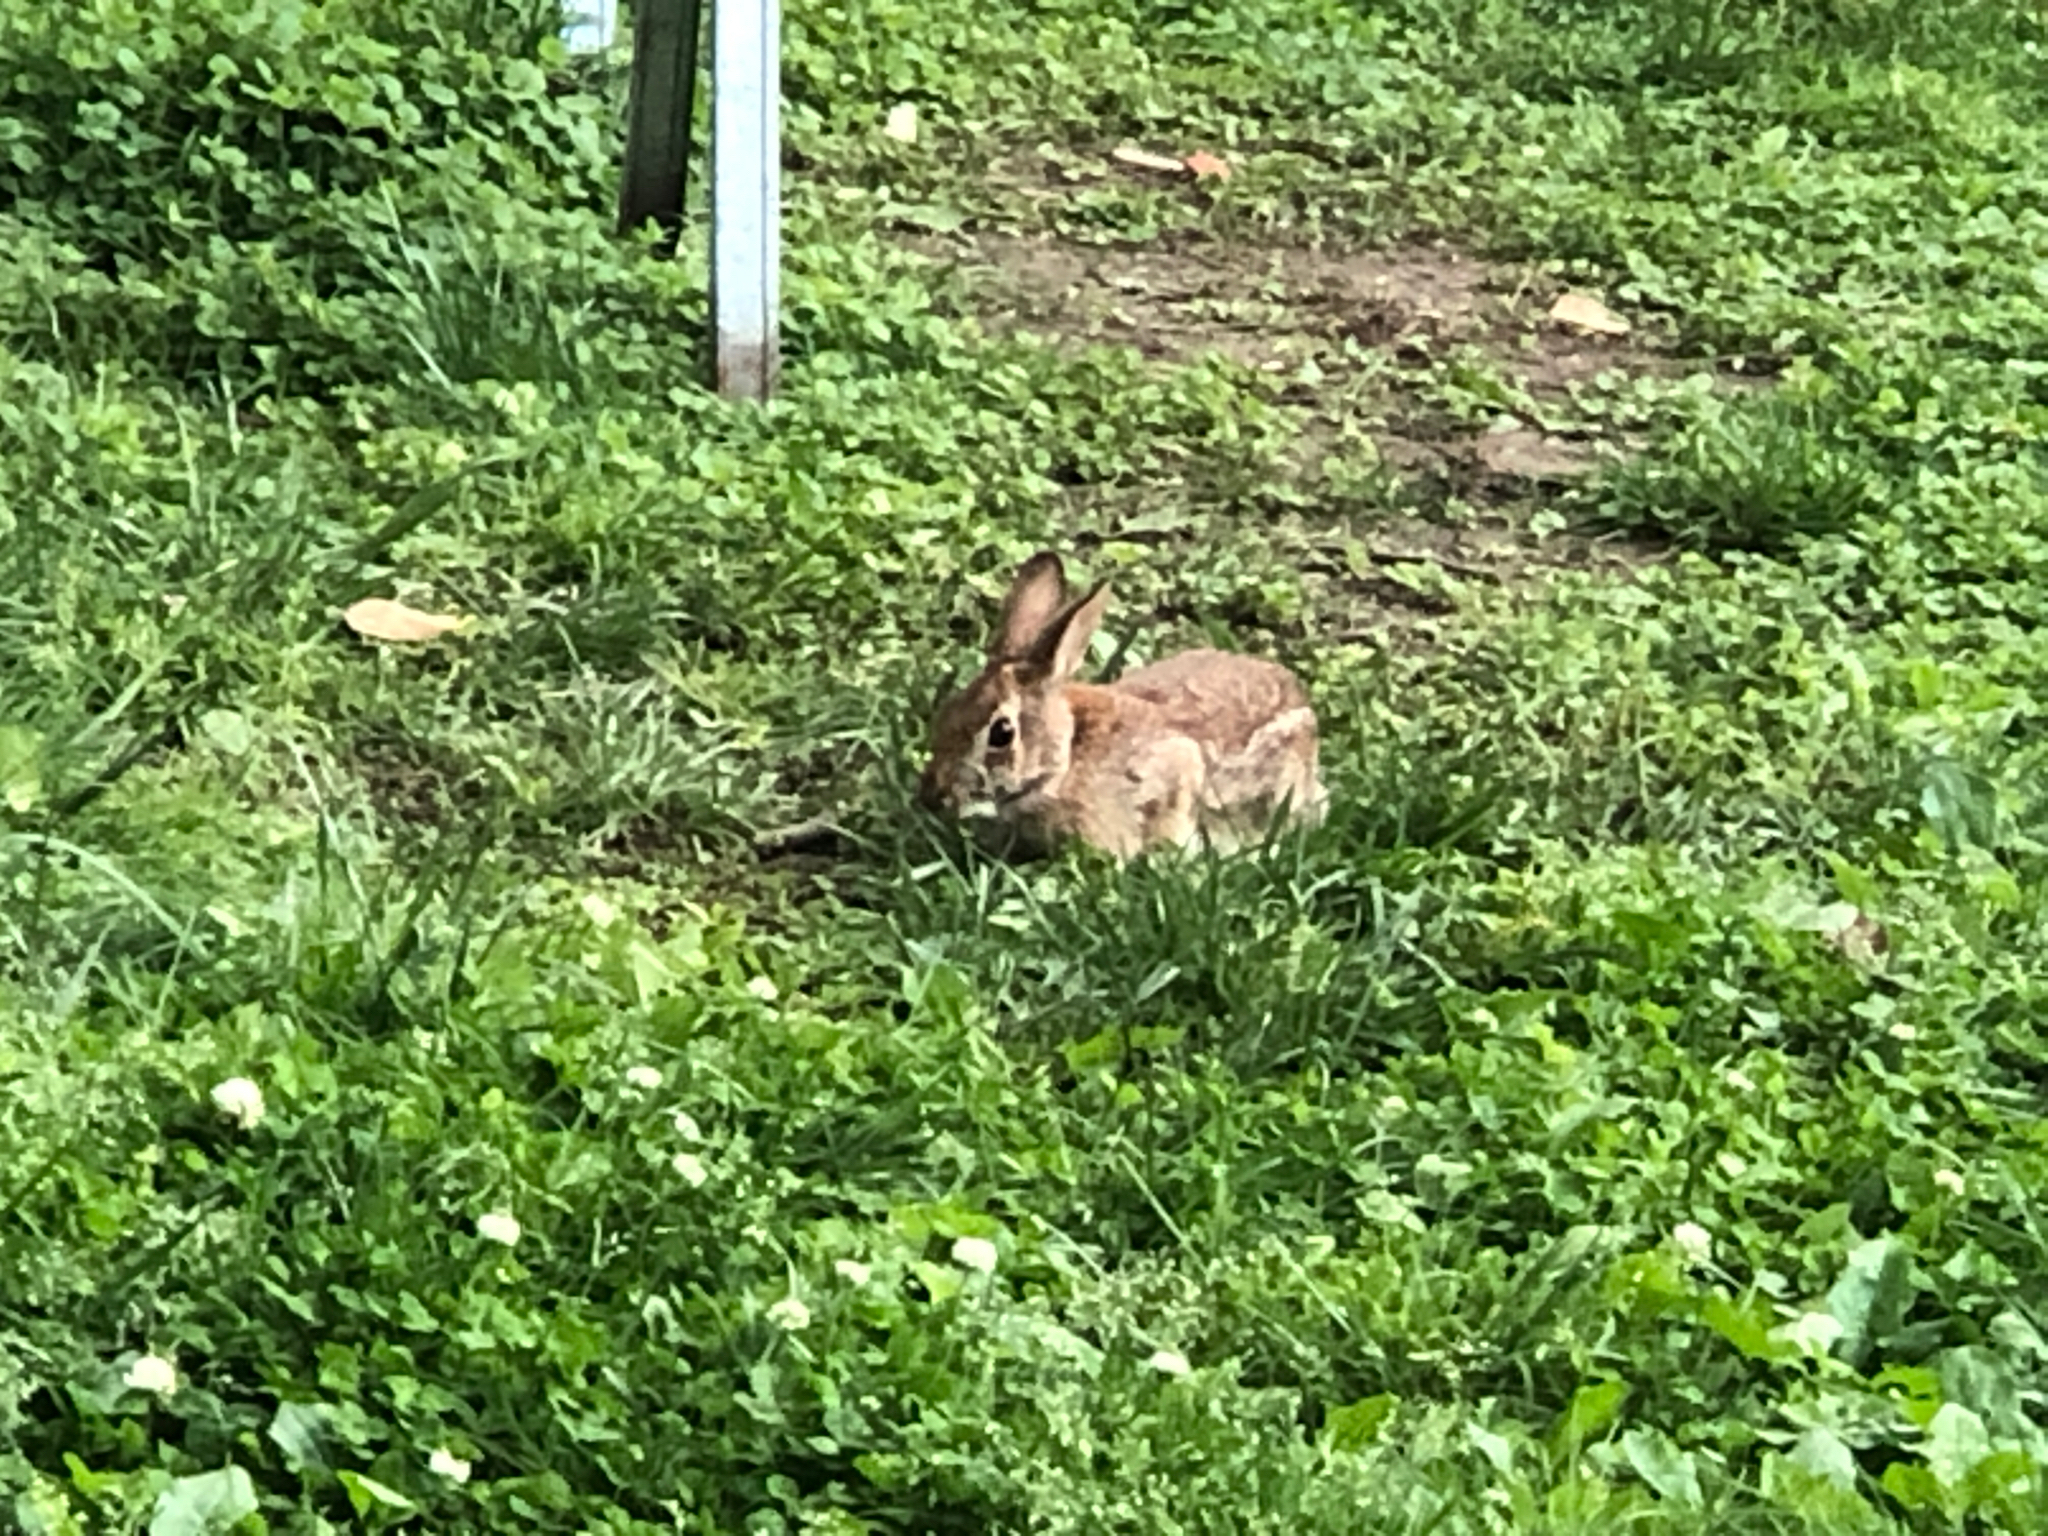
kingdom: Animalia
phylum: Chordata
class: Mammalia
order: Lagomorpha
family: Leporidae
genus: Sylvilagus
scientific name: Sylvilagus floridanus
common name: Eastern cottontail
